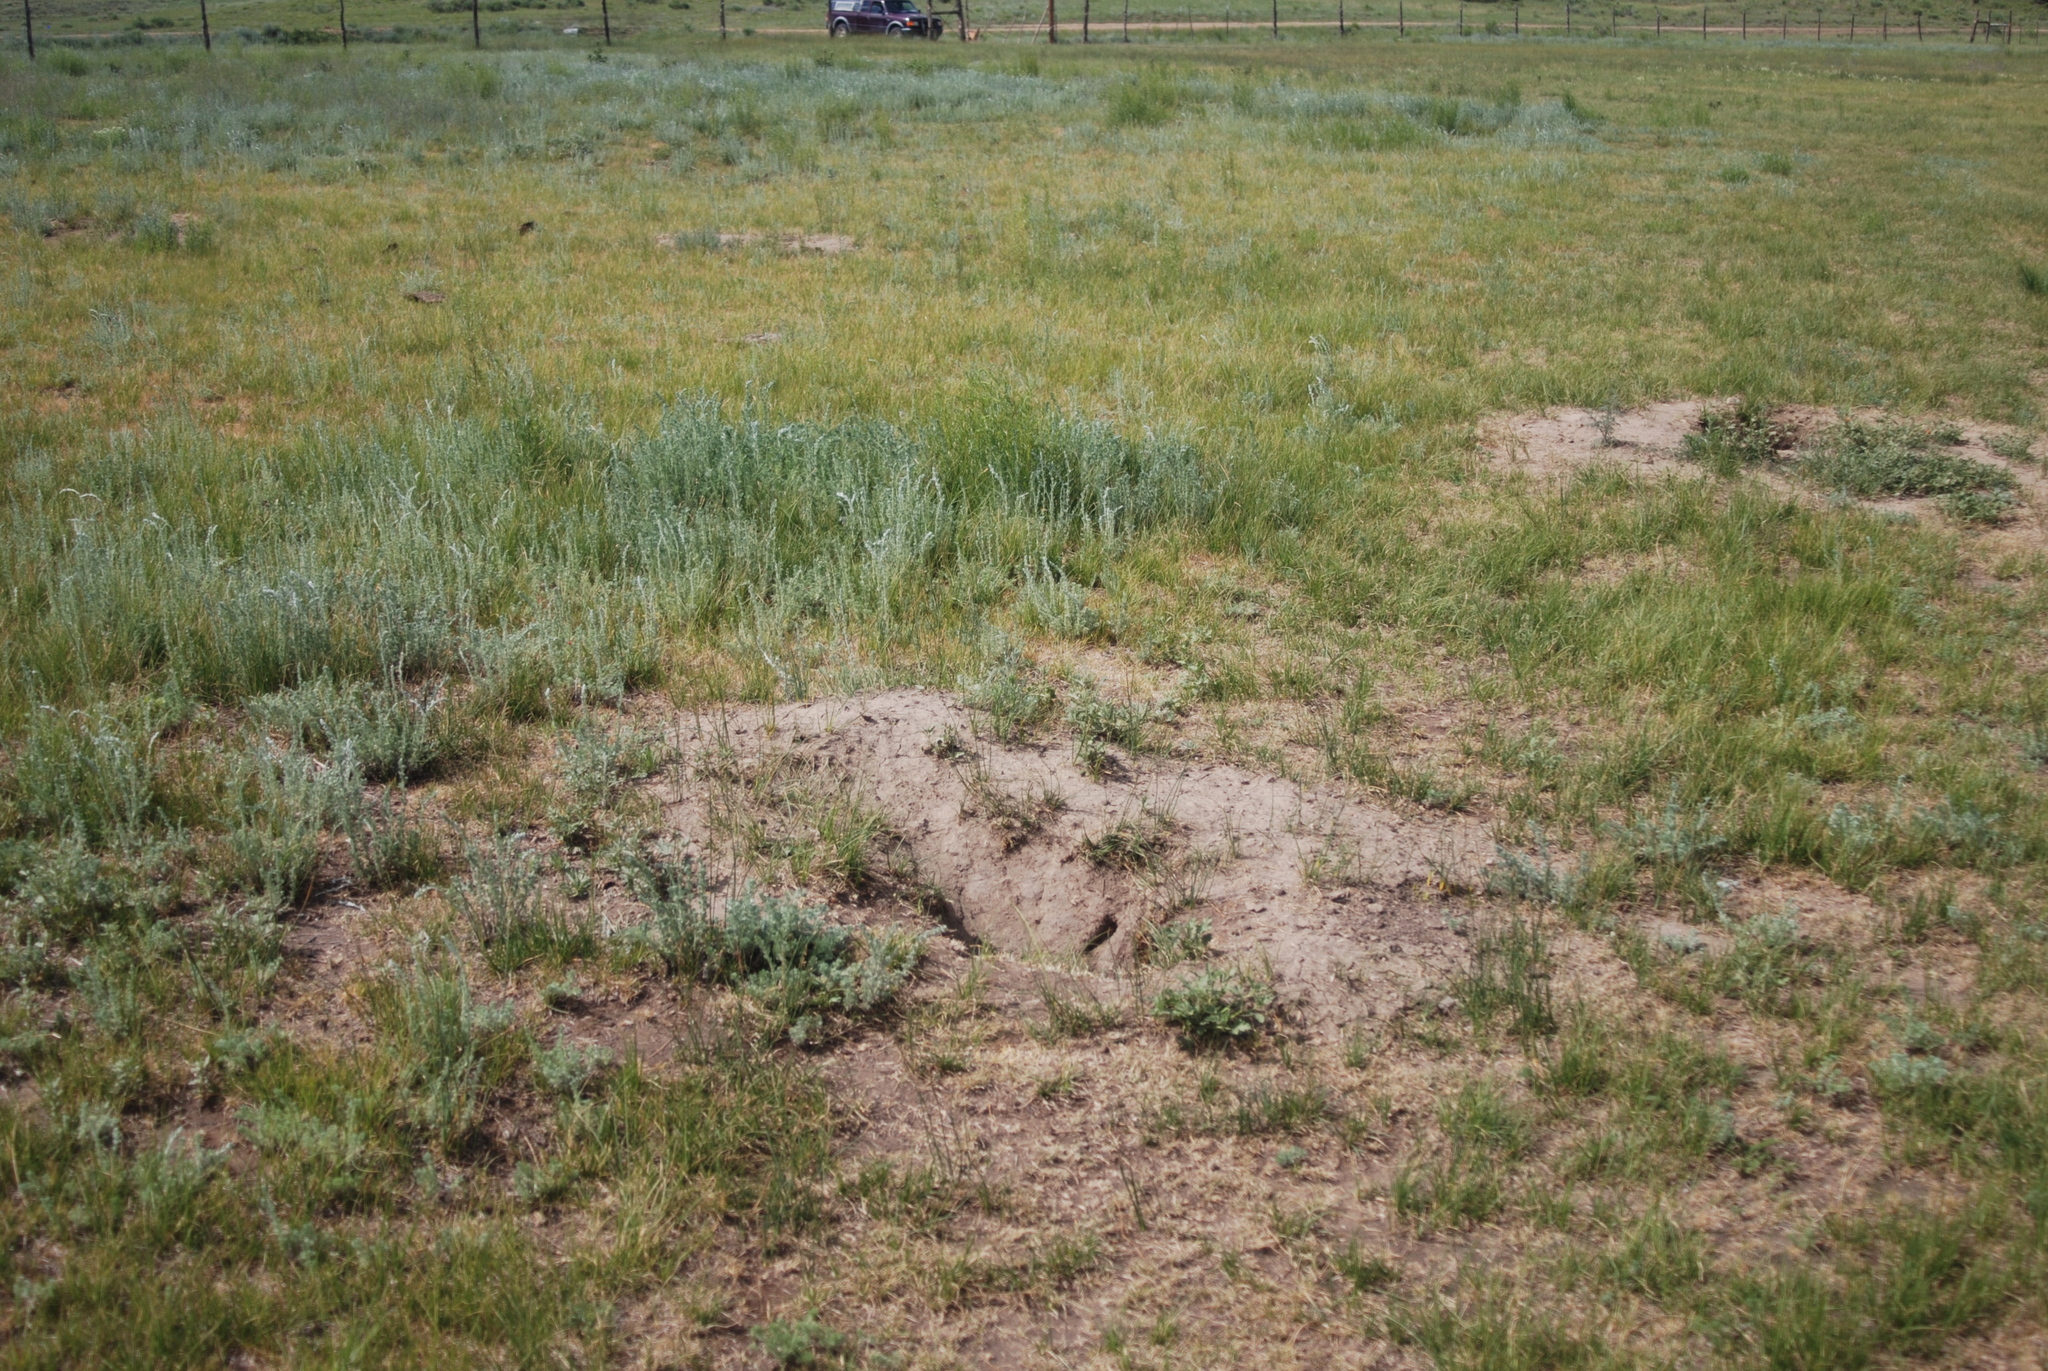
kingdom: Animalia
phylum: Chordata
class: Mammalia
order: Rodentia
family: Sciuridae
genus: Cynomys
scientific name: Cynomys gunnisoni
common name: Gunnison's prairie dog
